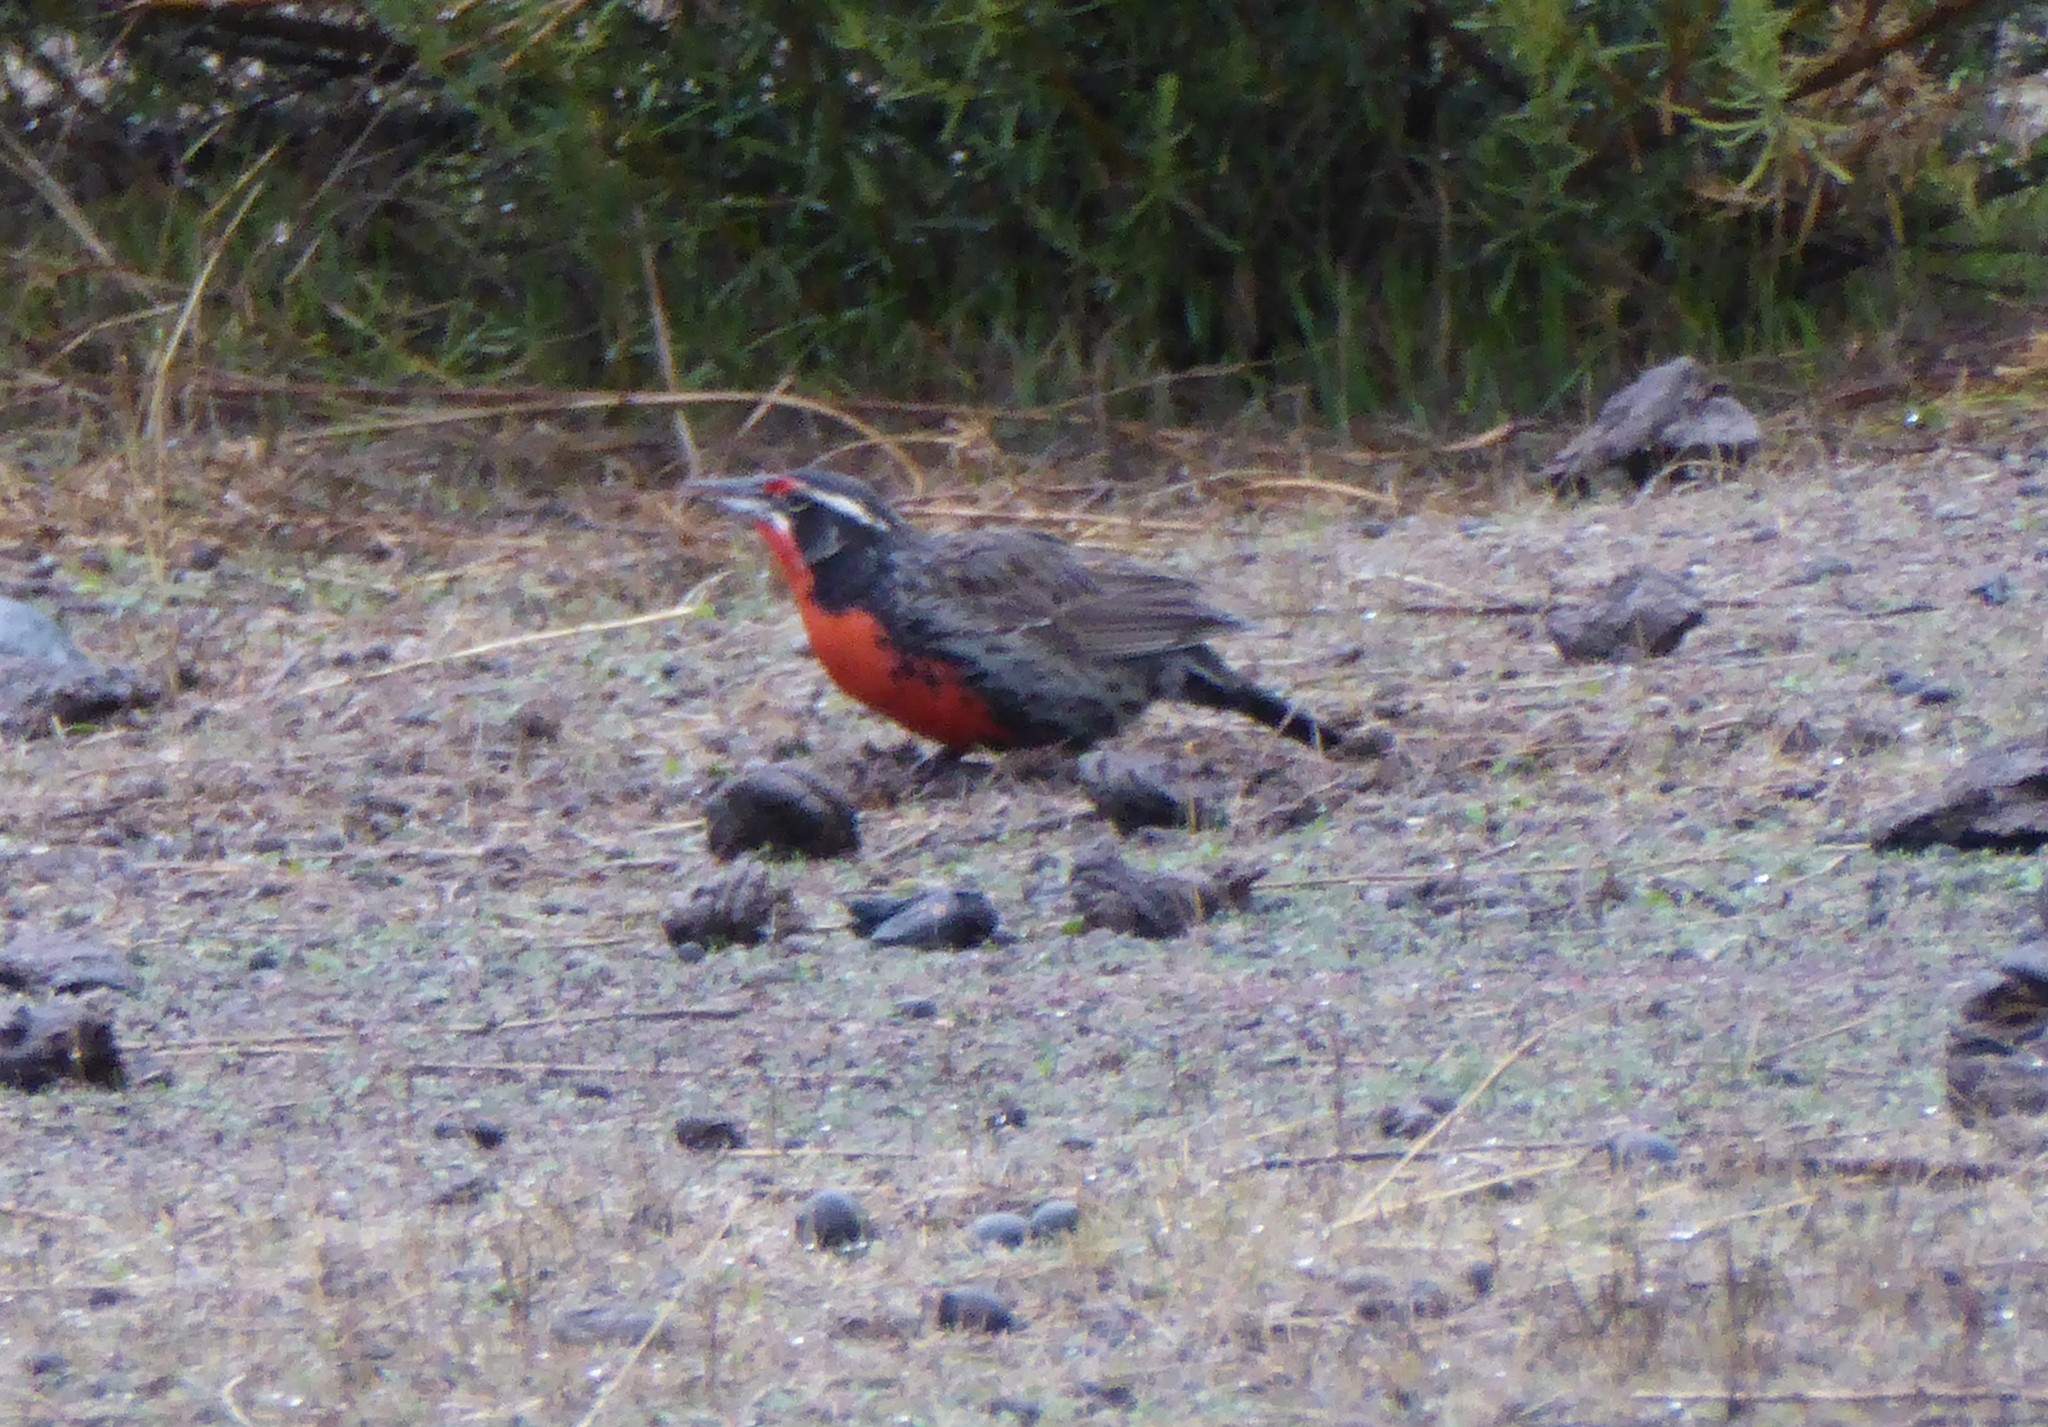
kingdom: Animalia
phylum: Chordata
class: Aves
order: Passeriformes
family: Icteridae
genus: Sturnella
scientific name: Sturnella loyca
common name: Long-tailed meadowlark
